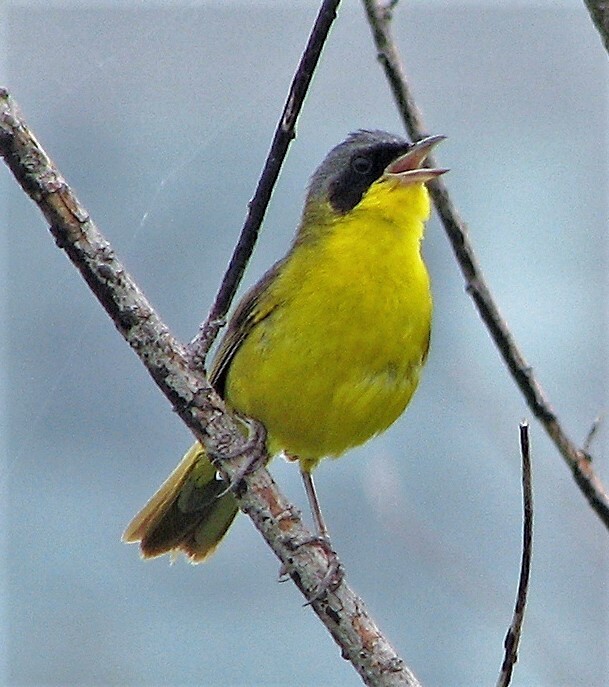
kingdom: Animalia
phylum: Chordata
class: Aves
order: Passeriformes
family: Parulidae
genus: Geothlypis
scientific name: Geothlypis velata
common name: Southern yellowthroat
